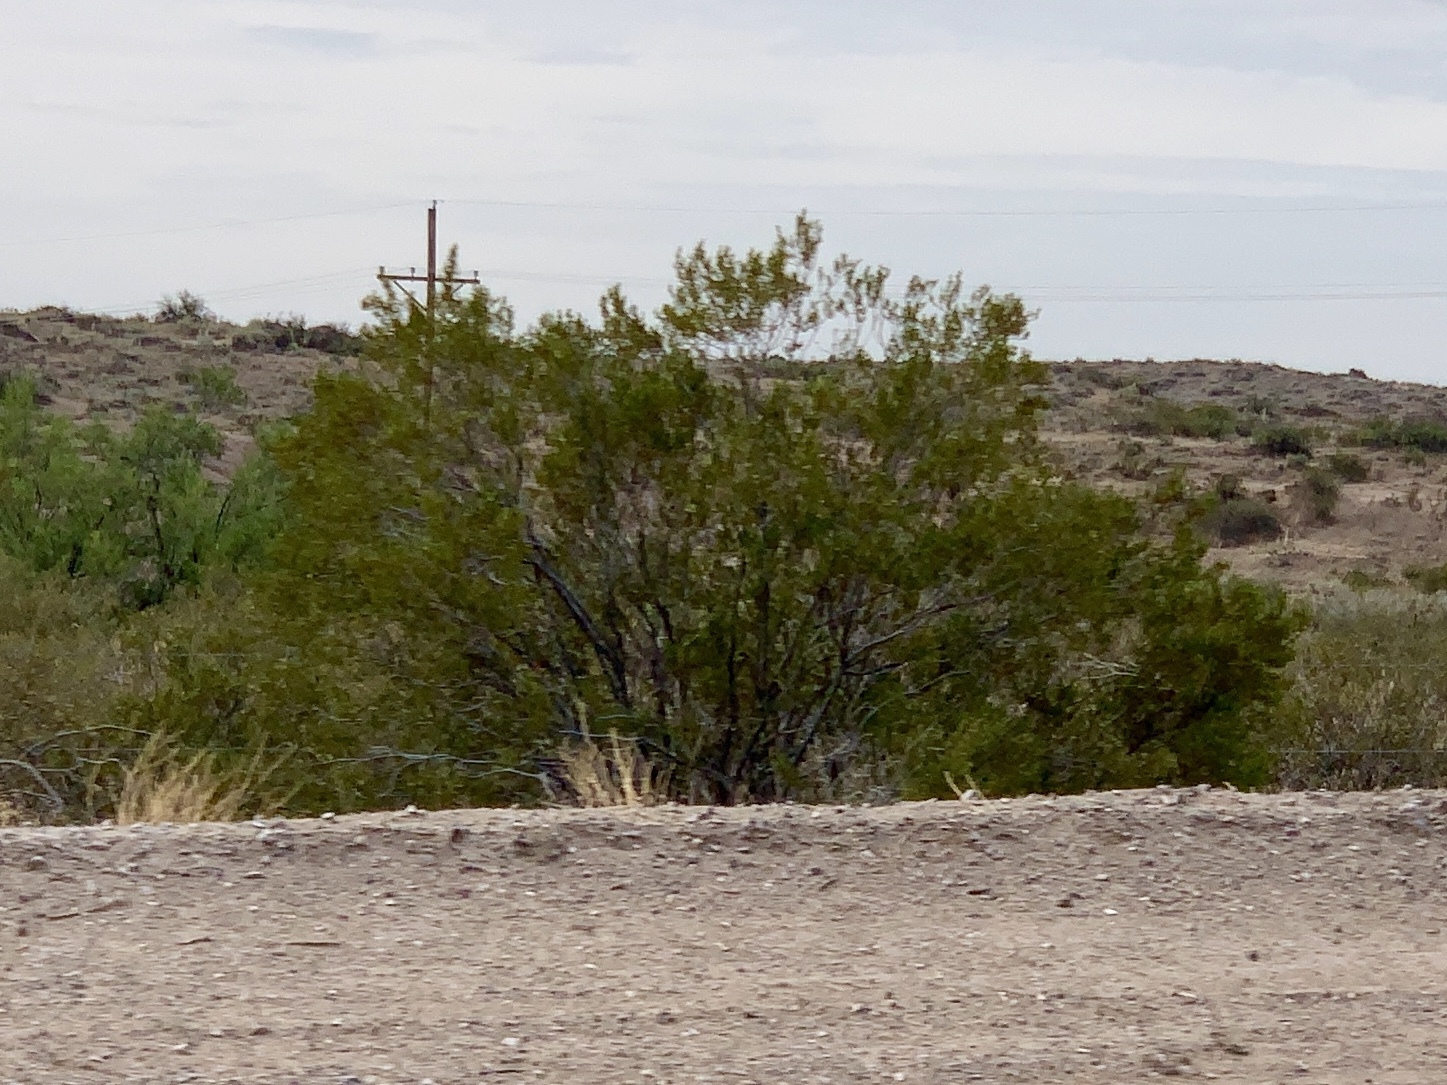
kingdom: Plantae
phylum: Tracheophyta
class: Magnoliopsida
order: Zygophyllales
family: Zygophyllaceae
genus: Larrea
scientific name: Larrea tridentata
